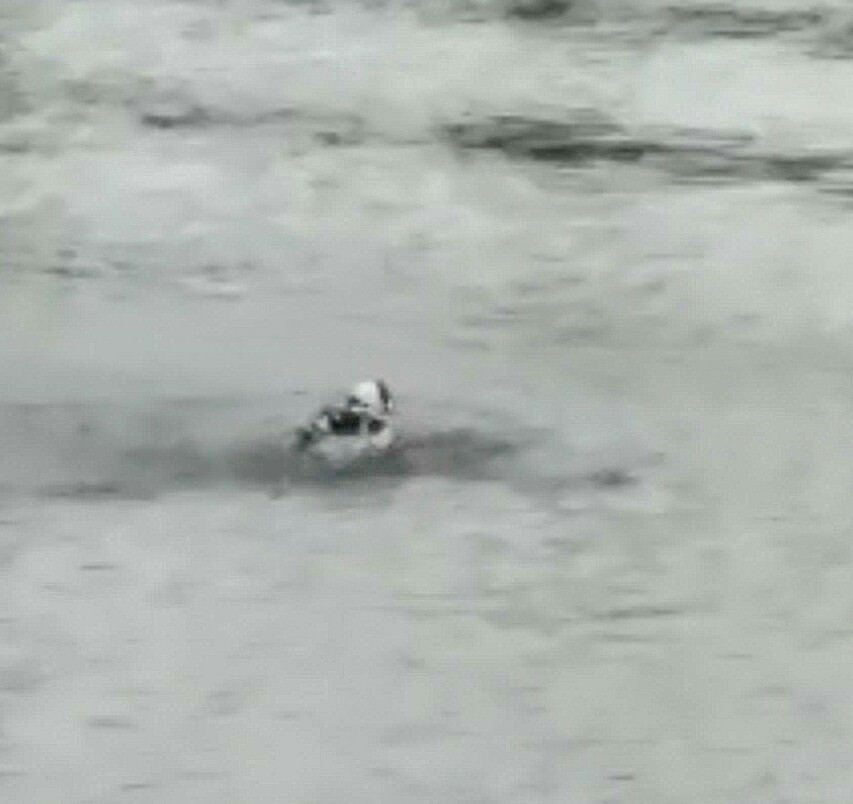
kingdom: Animalia
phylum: Chordata
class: Aves
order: Anseriformes
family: Anatidae
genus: Bucephala
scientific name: Bucephala albeola
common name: Bufflehead
